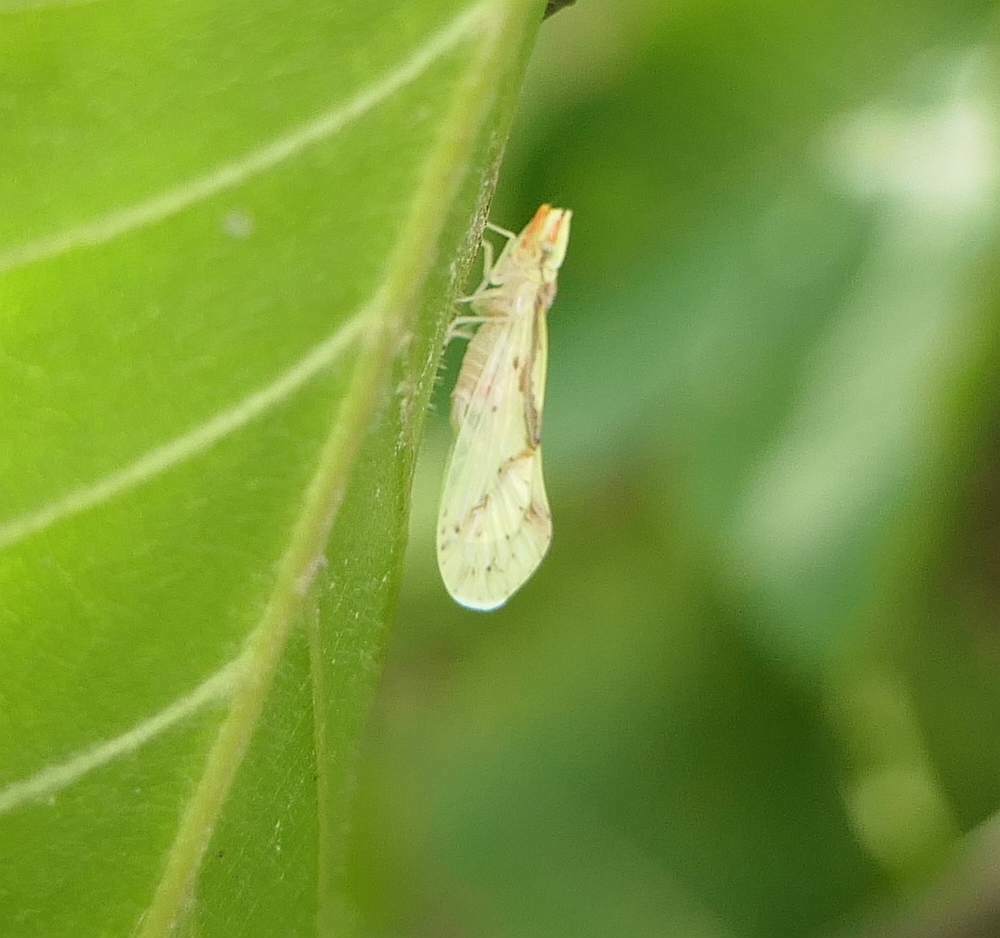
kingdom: Animalia
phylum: Arthropoda
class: Insecta
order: Hemiptera
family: Derbidae
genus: Otiocerus
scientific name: Otiocerus wolfii
